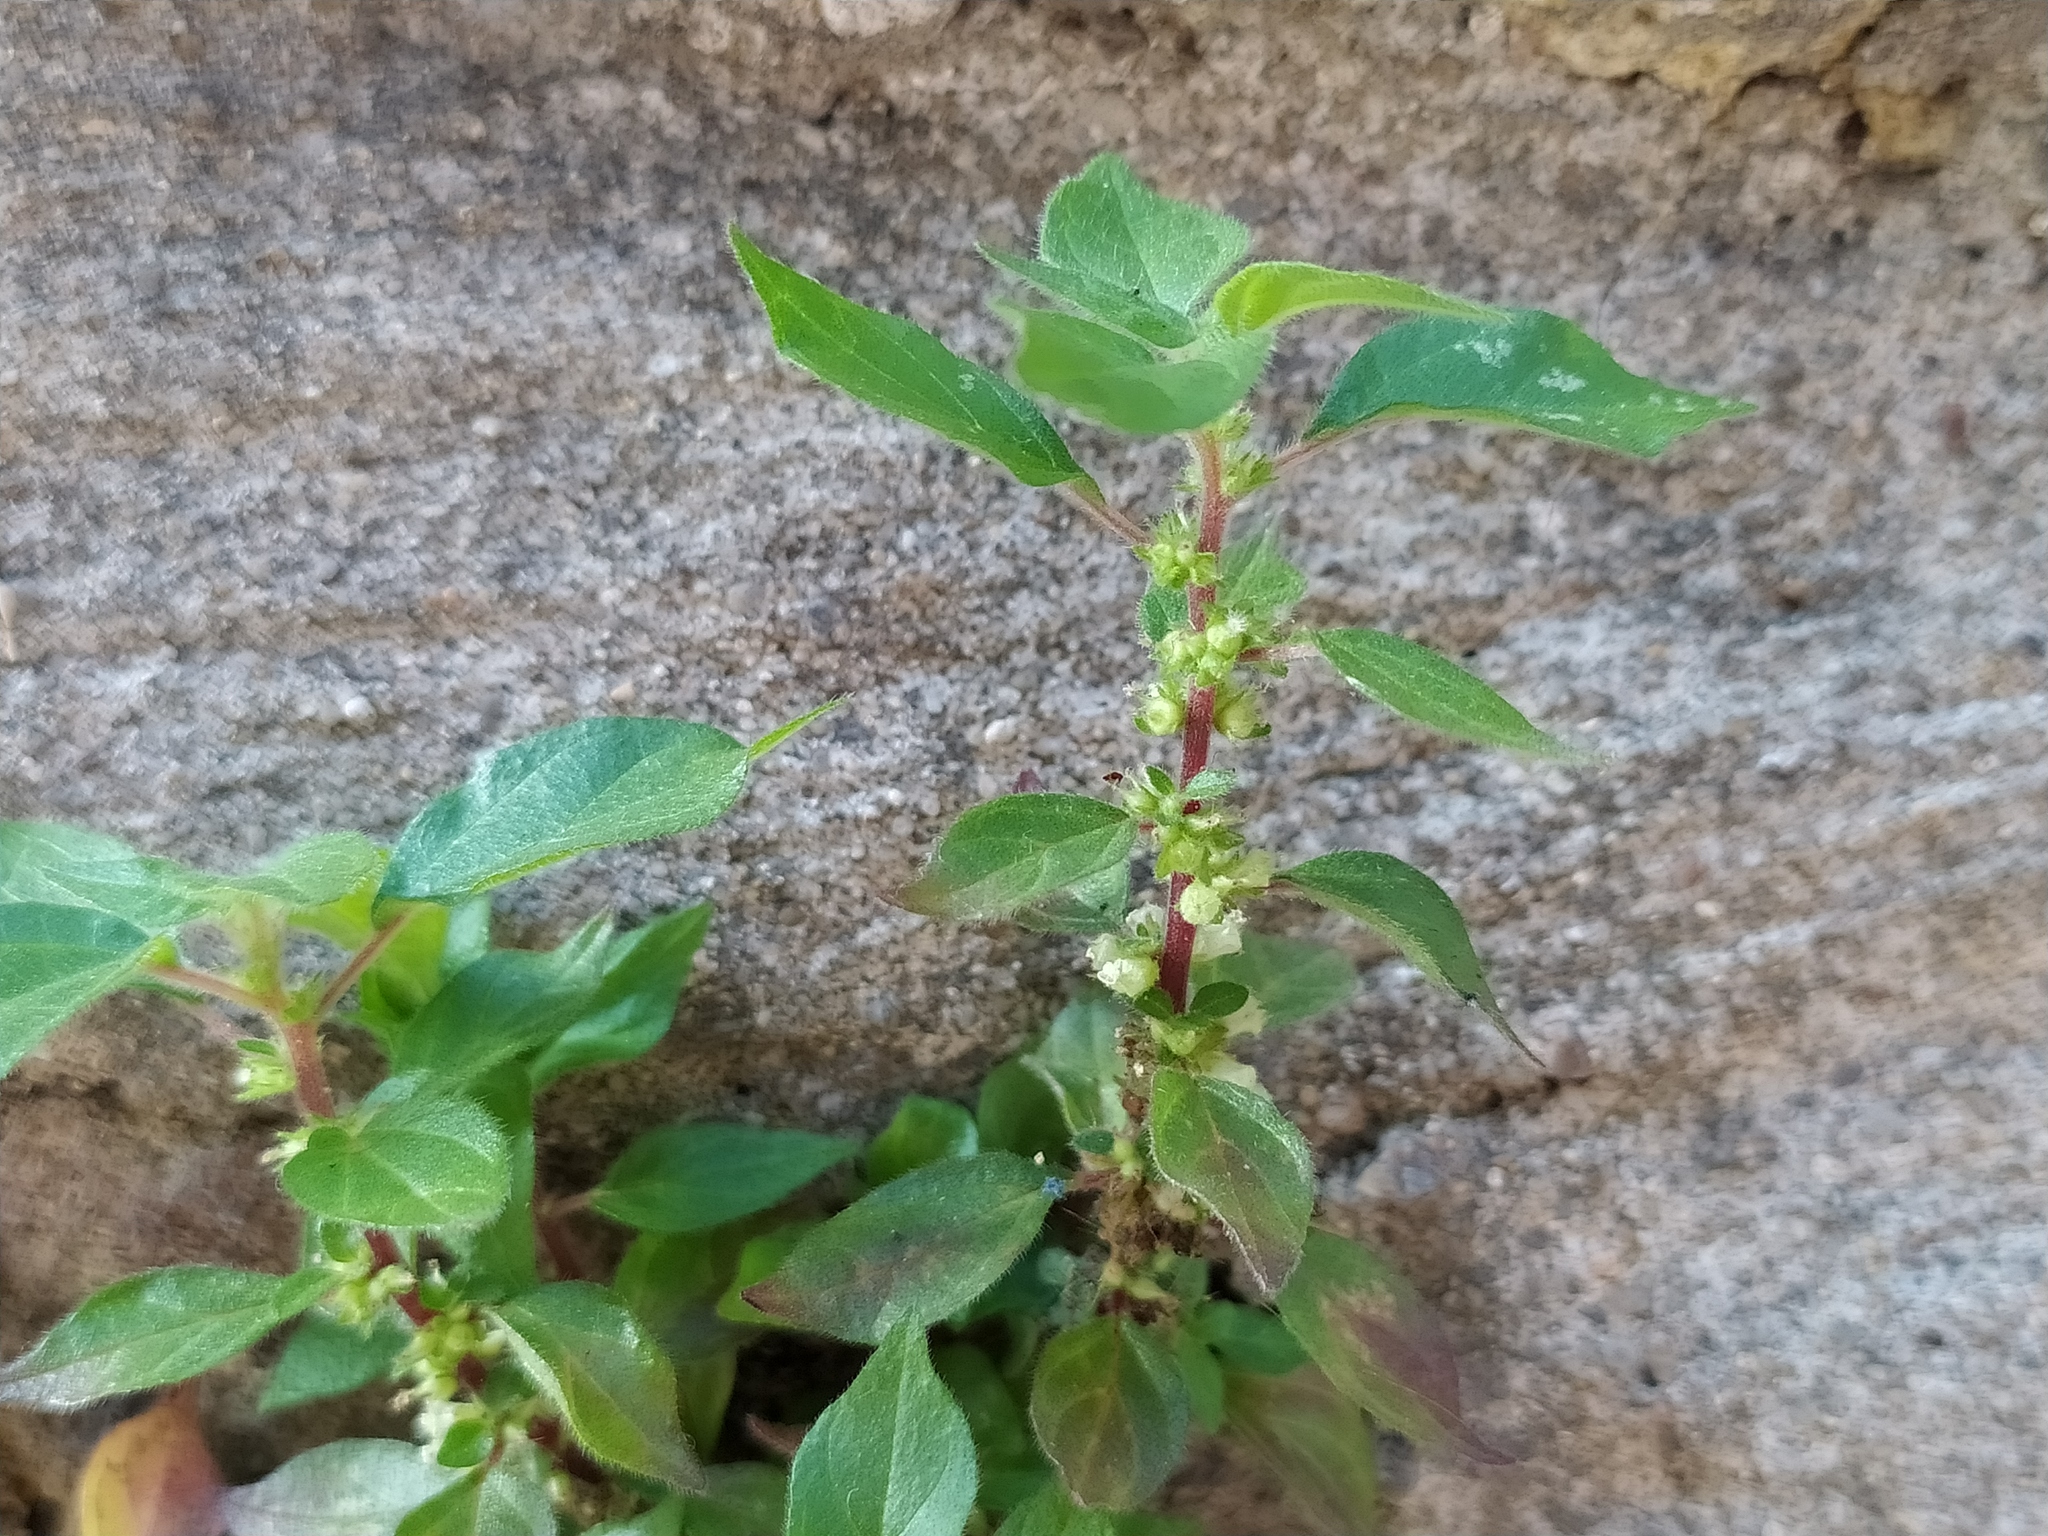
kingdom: Plantae
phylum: Tracheophyta
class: Magnoliopsida
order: Rosales
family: Urticaceae
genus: Parietaria
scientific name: Parietaria judaica
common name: Pellitory-of-the-wall
